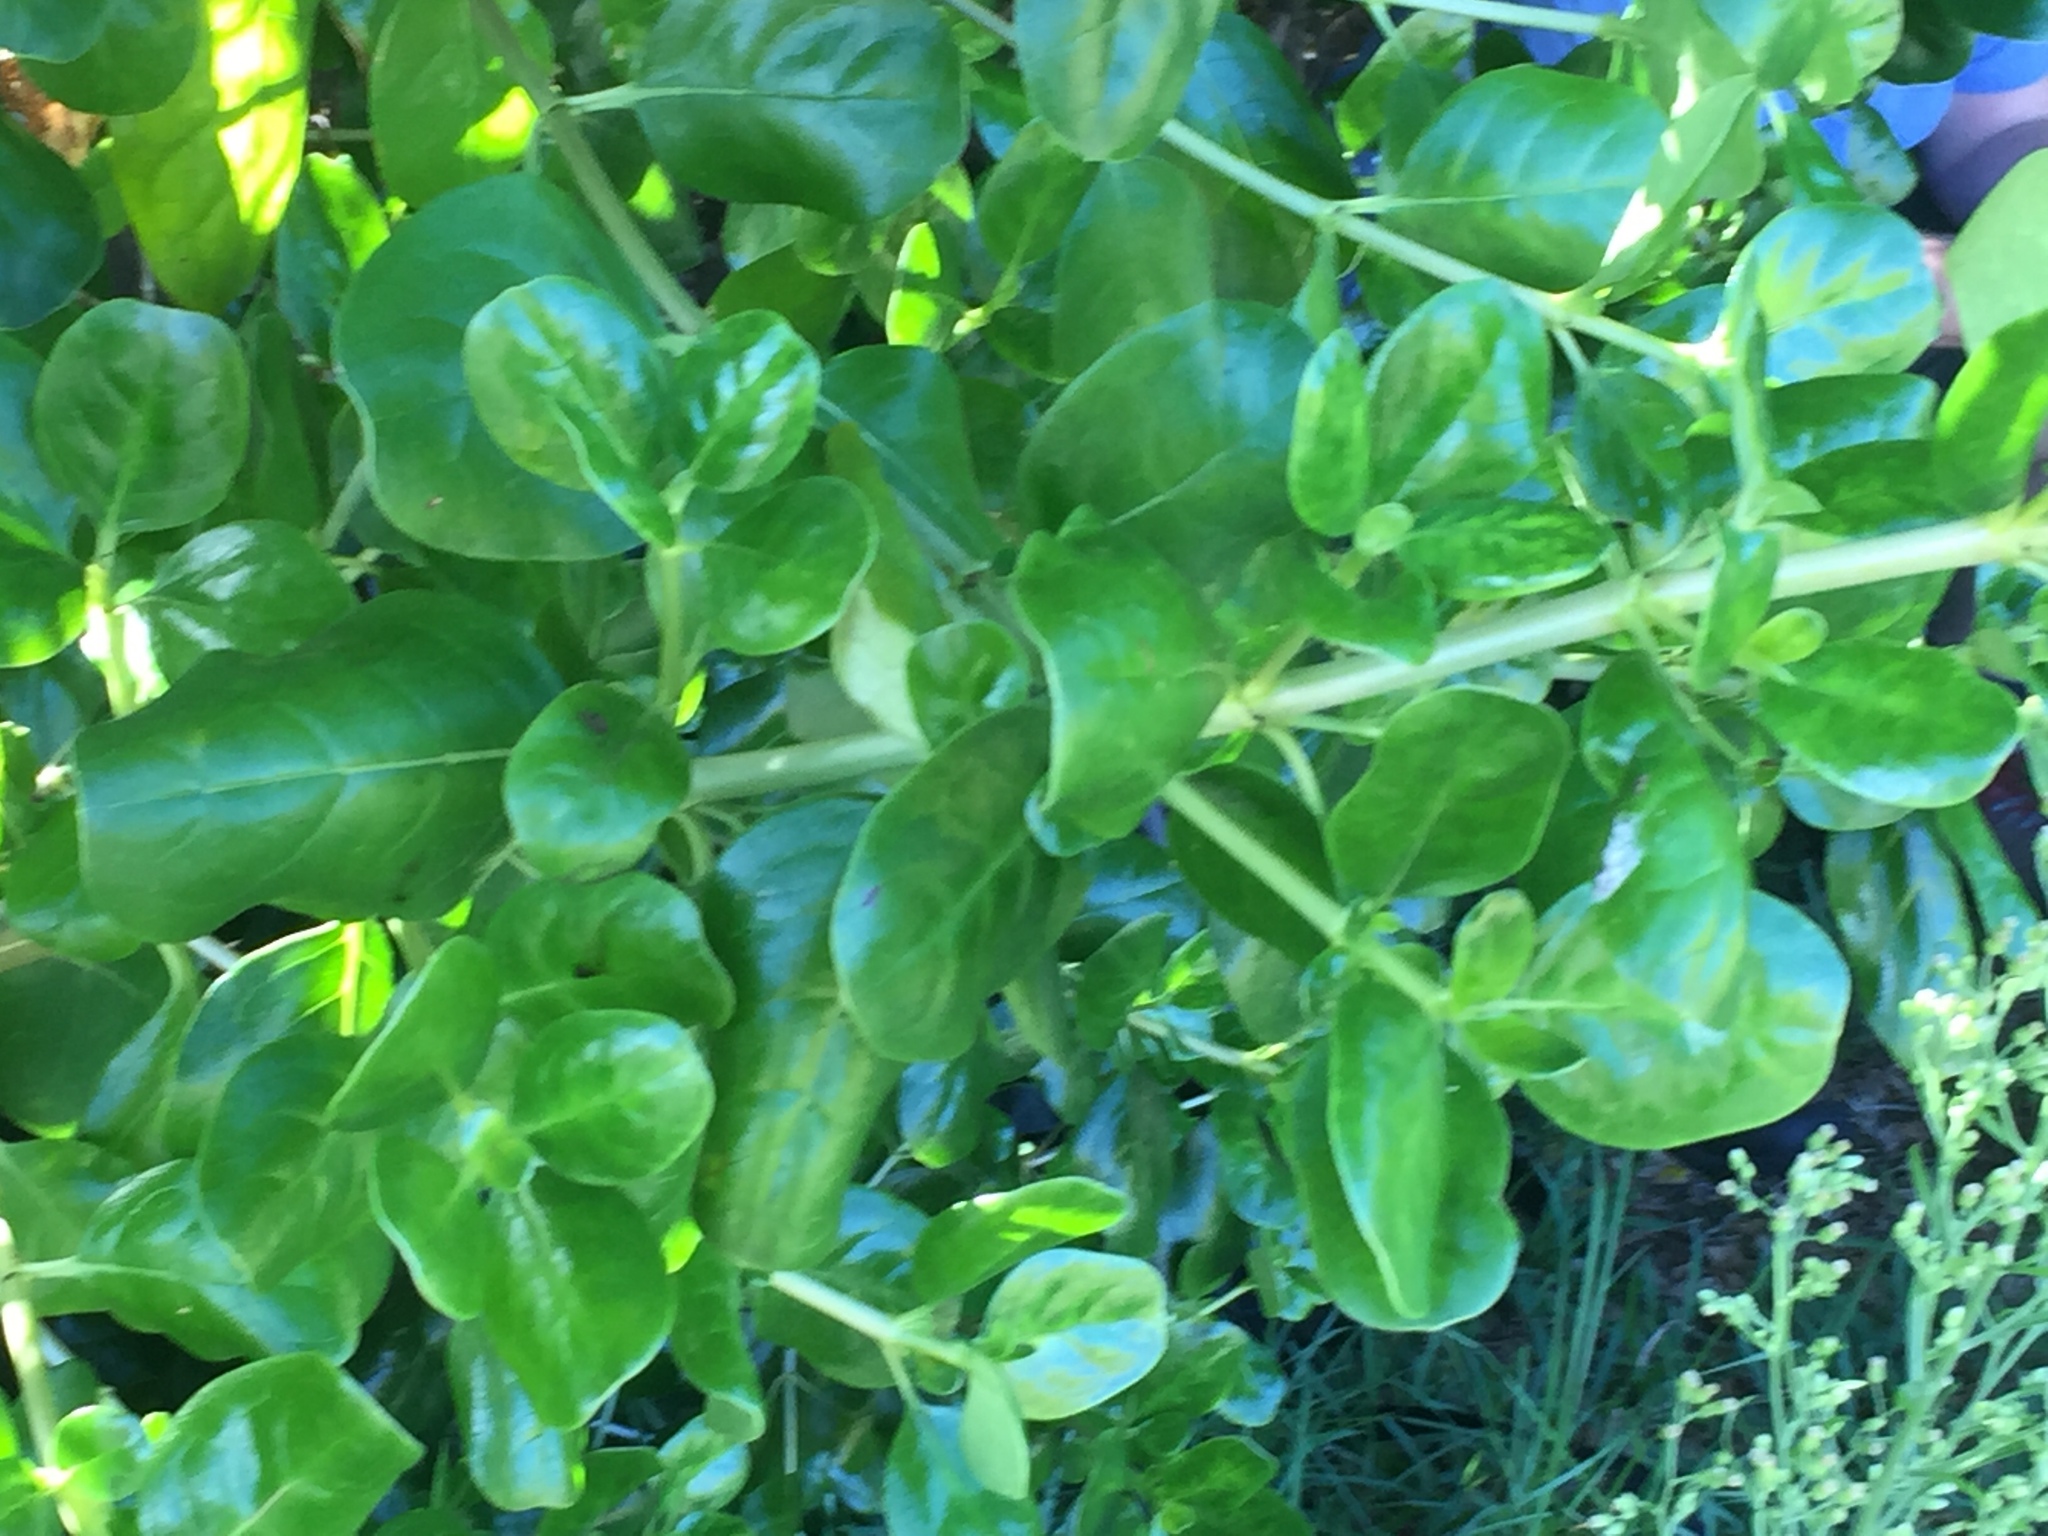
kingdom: Plantae
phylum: Tracheophyta
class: Magnoliopsida
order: Gentianales
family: Rubiaceae
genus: Coprosma
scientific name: Coprosma repens
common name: Tree bedstraw
